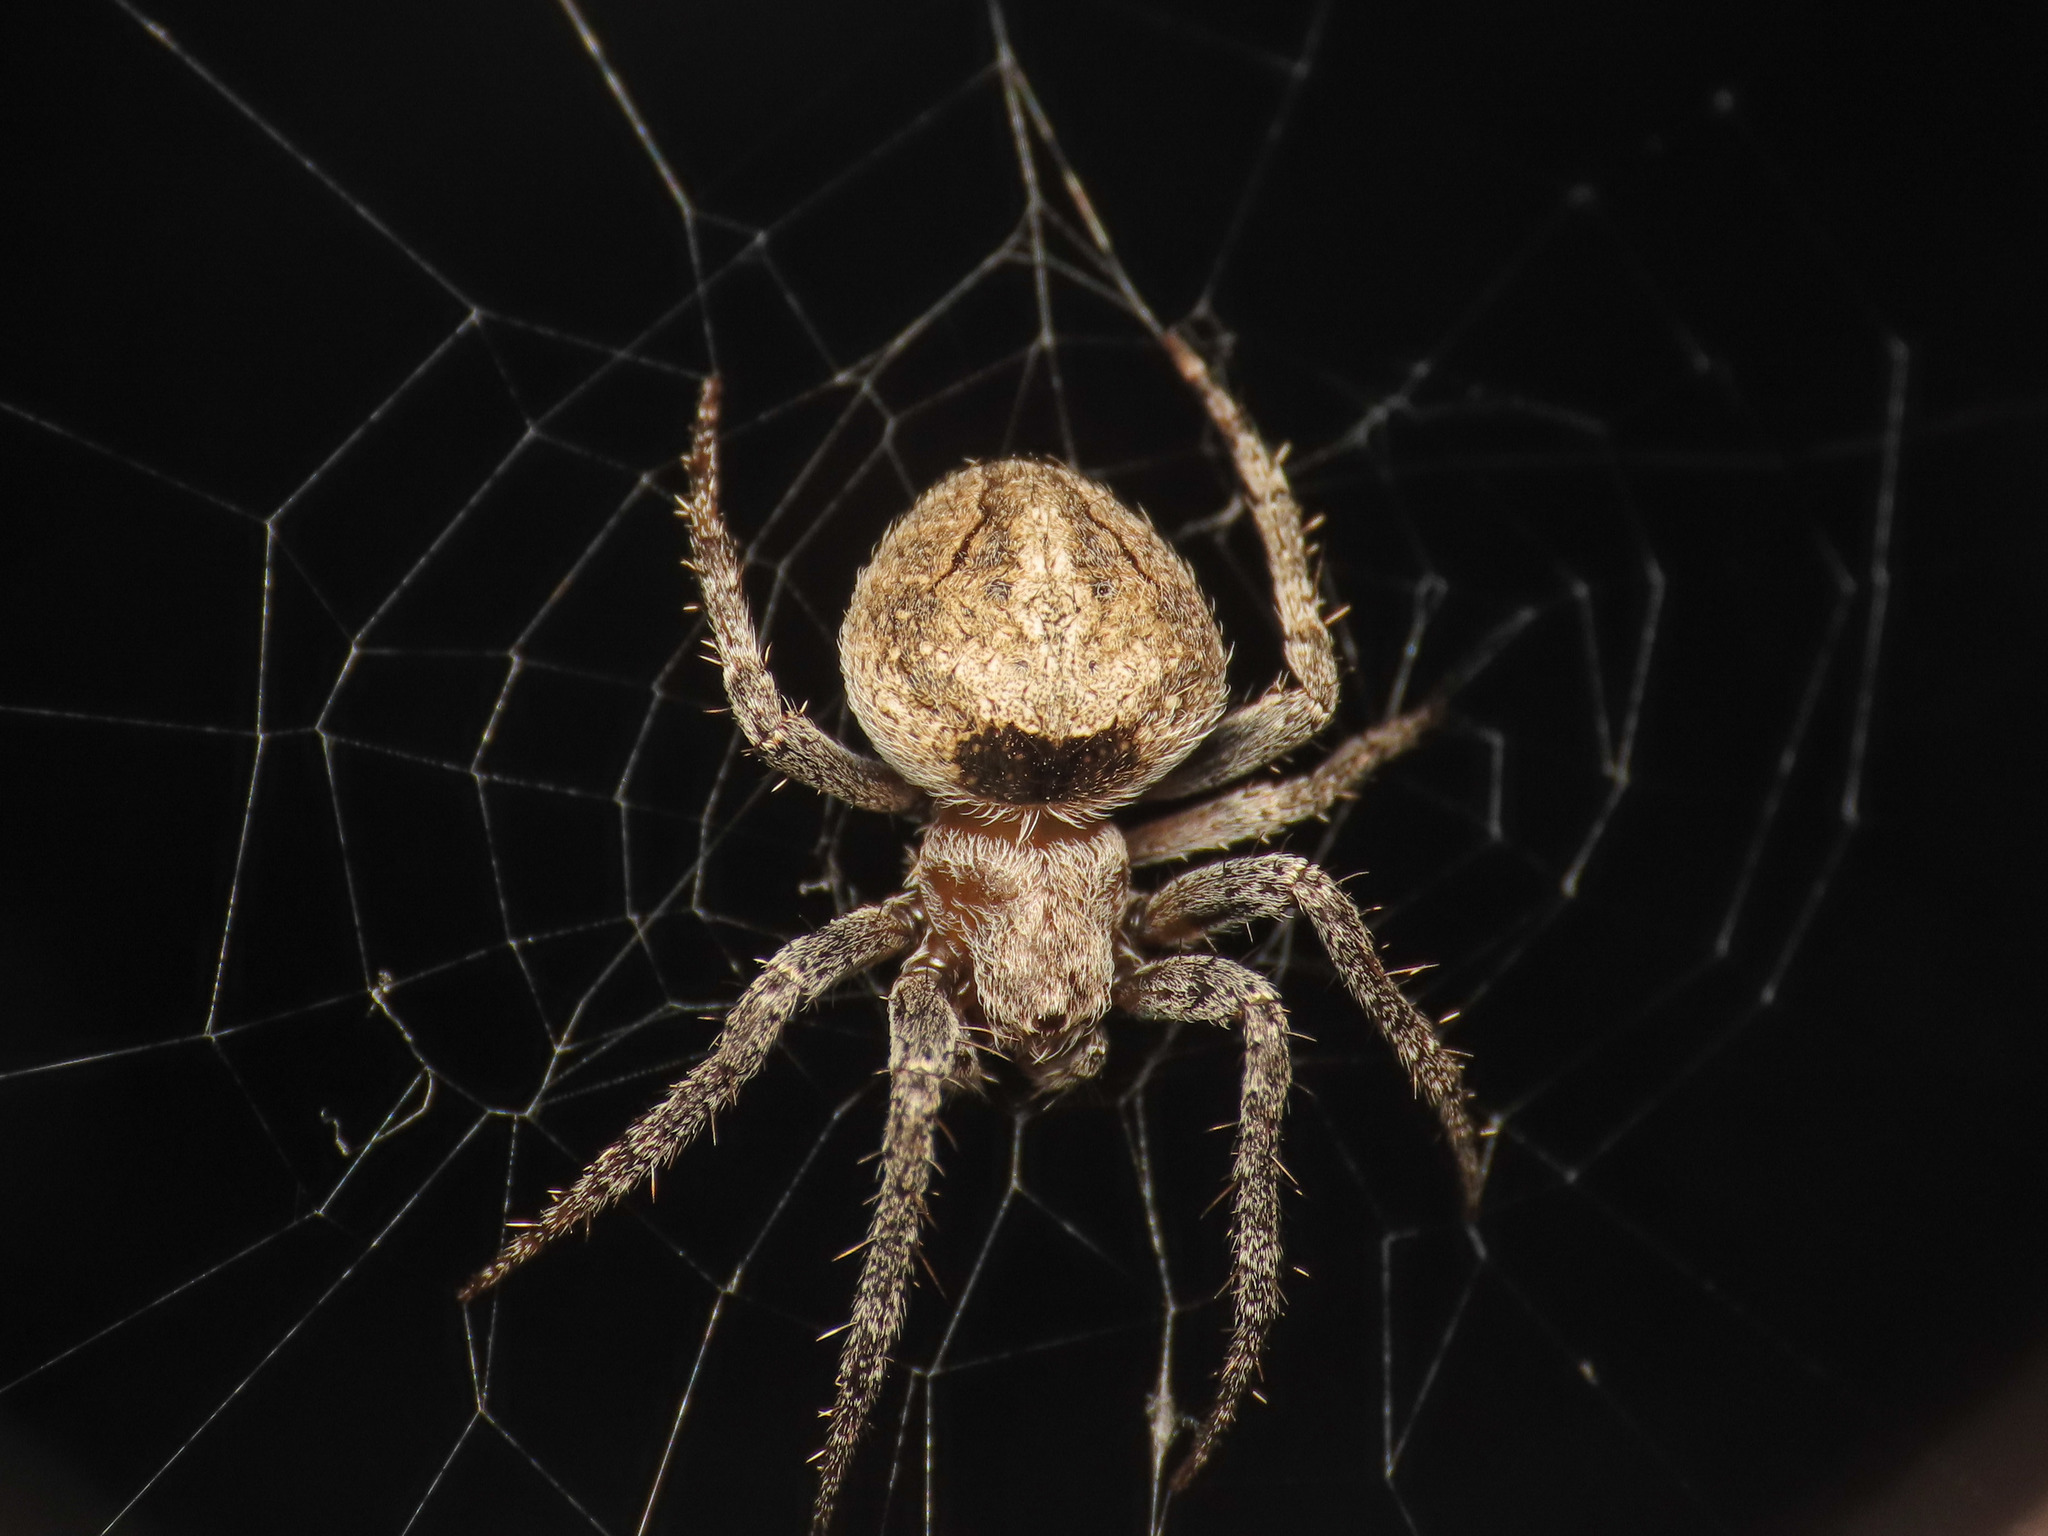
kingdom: Animalia
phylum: Arthropoda
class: Arachnida
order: Araneae
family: Araneidae
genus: Neoscona
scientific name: Neoscona subfusca
